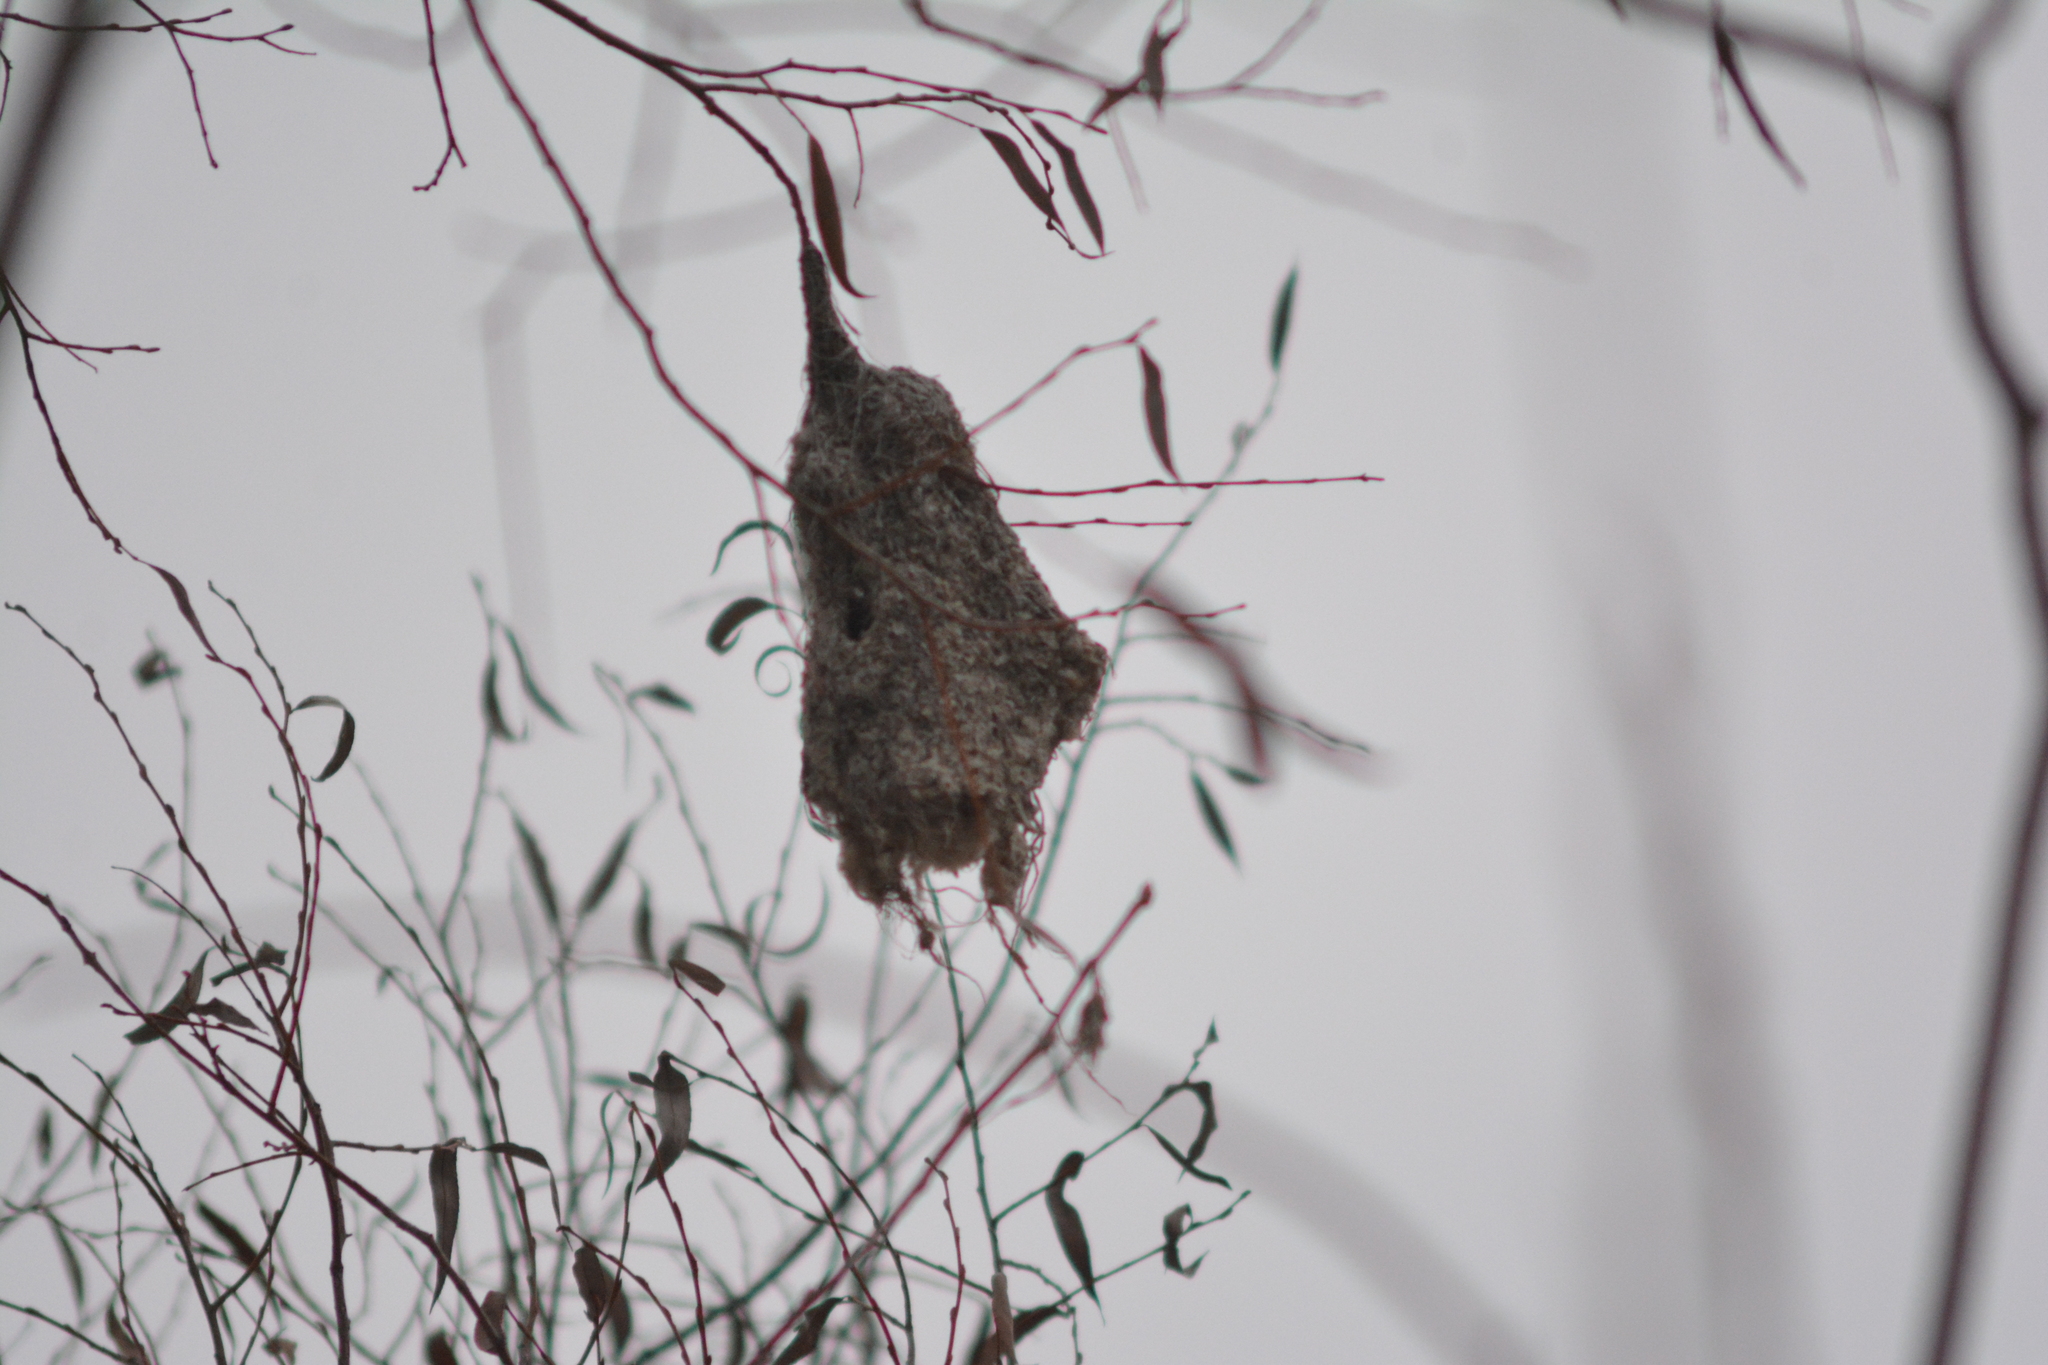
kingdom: Animalia
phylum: Chordata
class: Aves
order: Passeriformes
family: Remizidae
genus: Remiz
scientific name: Remiz pendulinus
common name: Eurasian penduline tit
